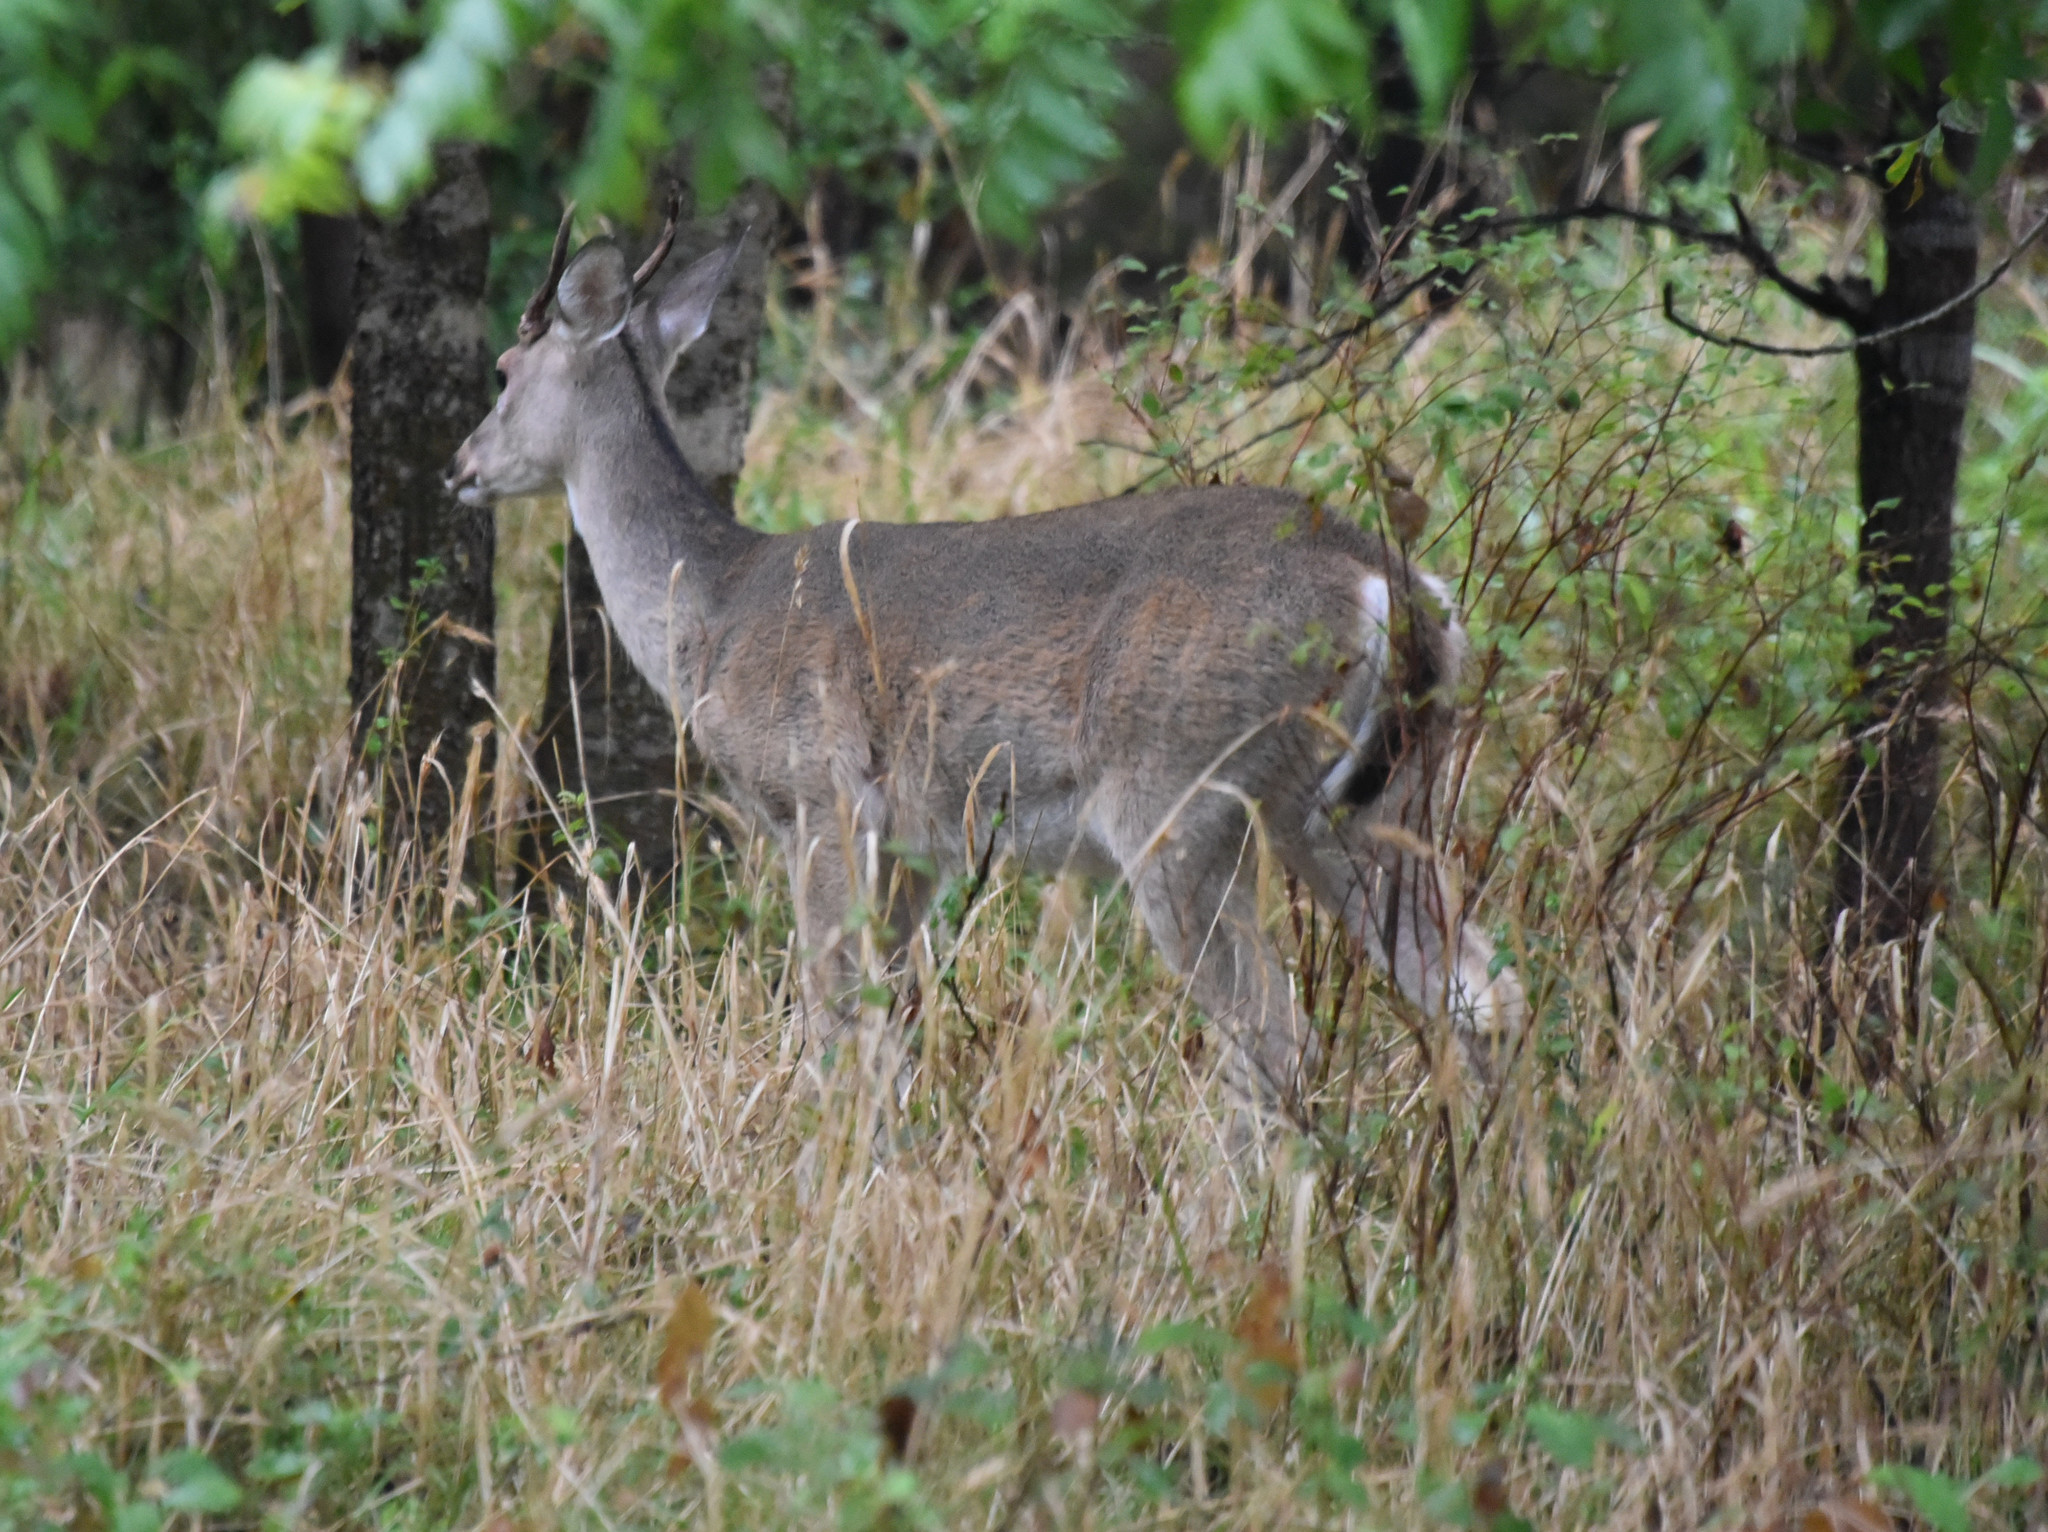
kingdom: Animalia
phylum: Chordata
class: Mammalia
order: Artiodactyla
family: Cervidae
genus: Odocoileus
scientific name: Odocoileus virginianus
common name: White-tailed deer
